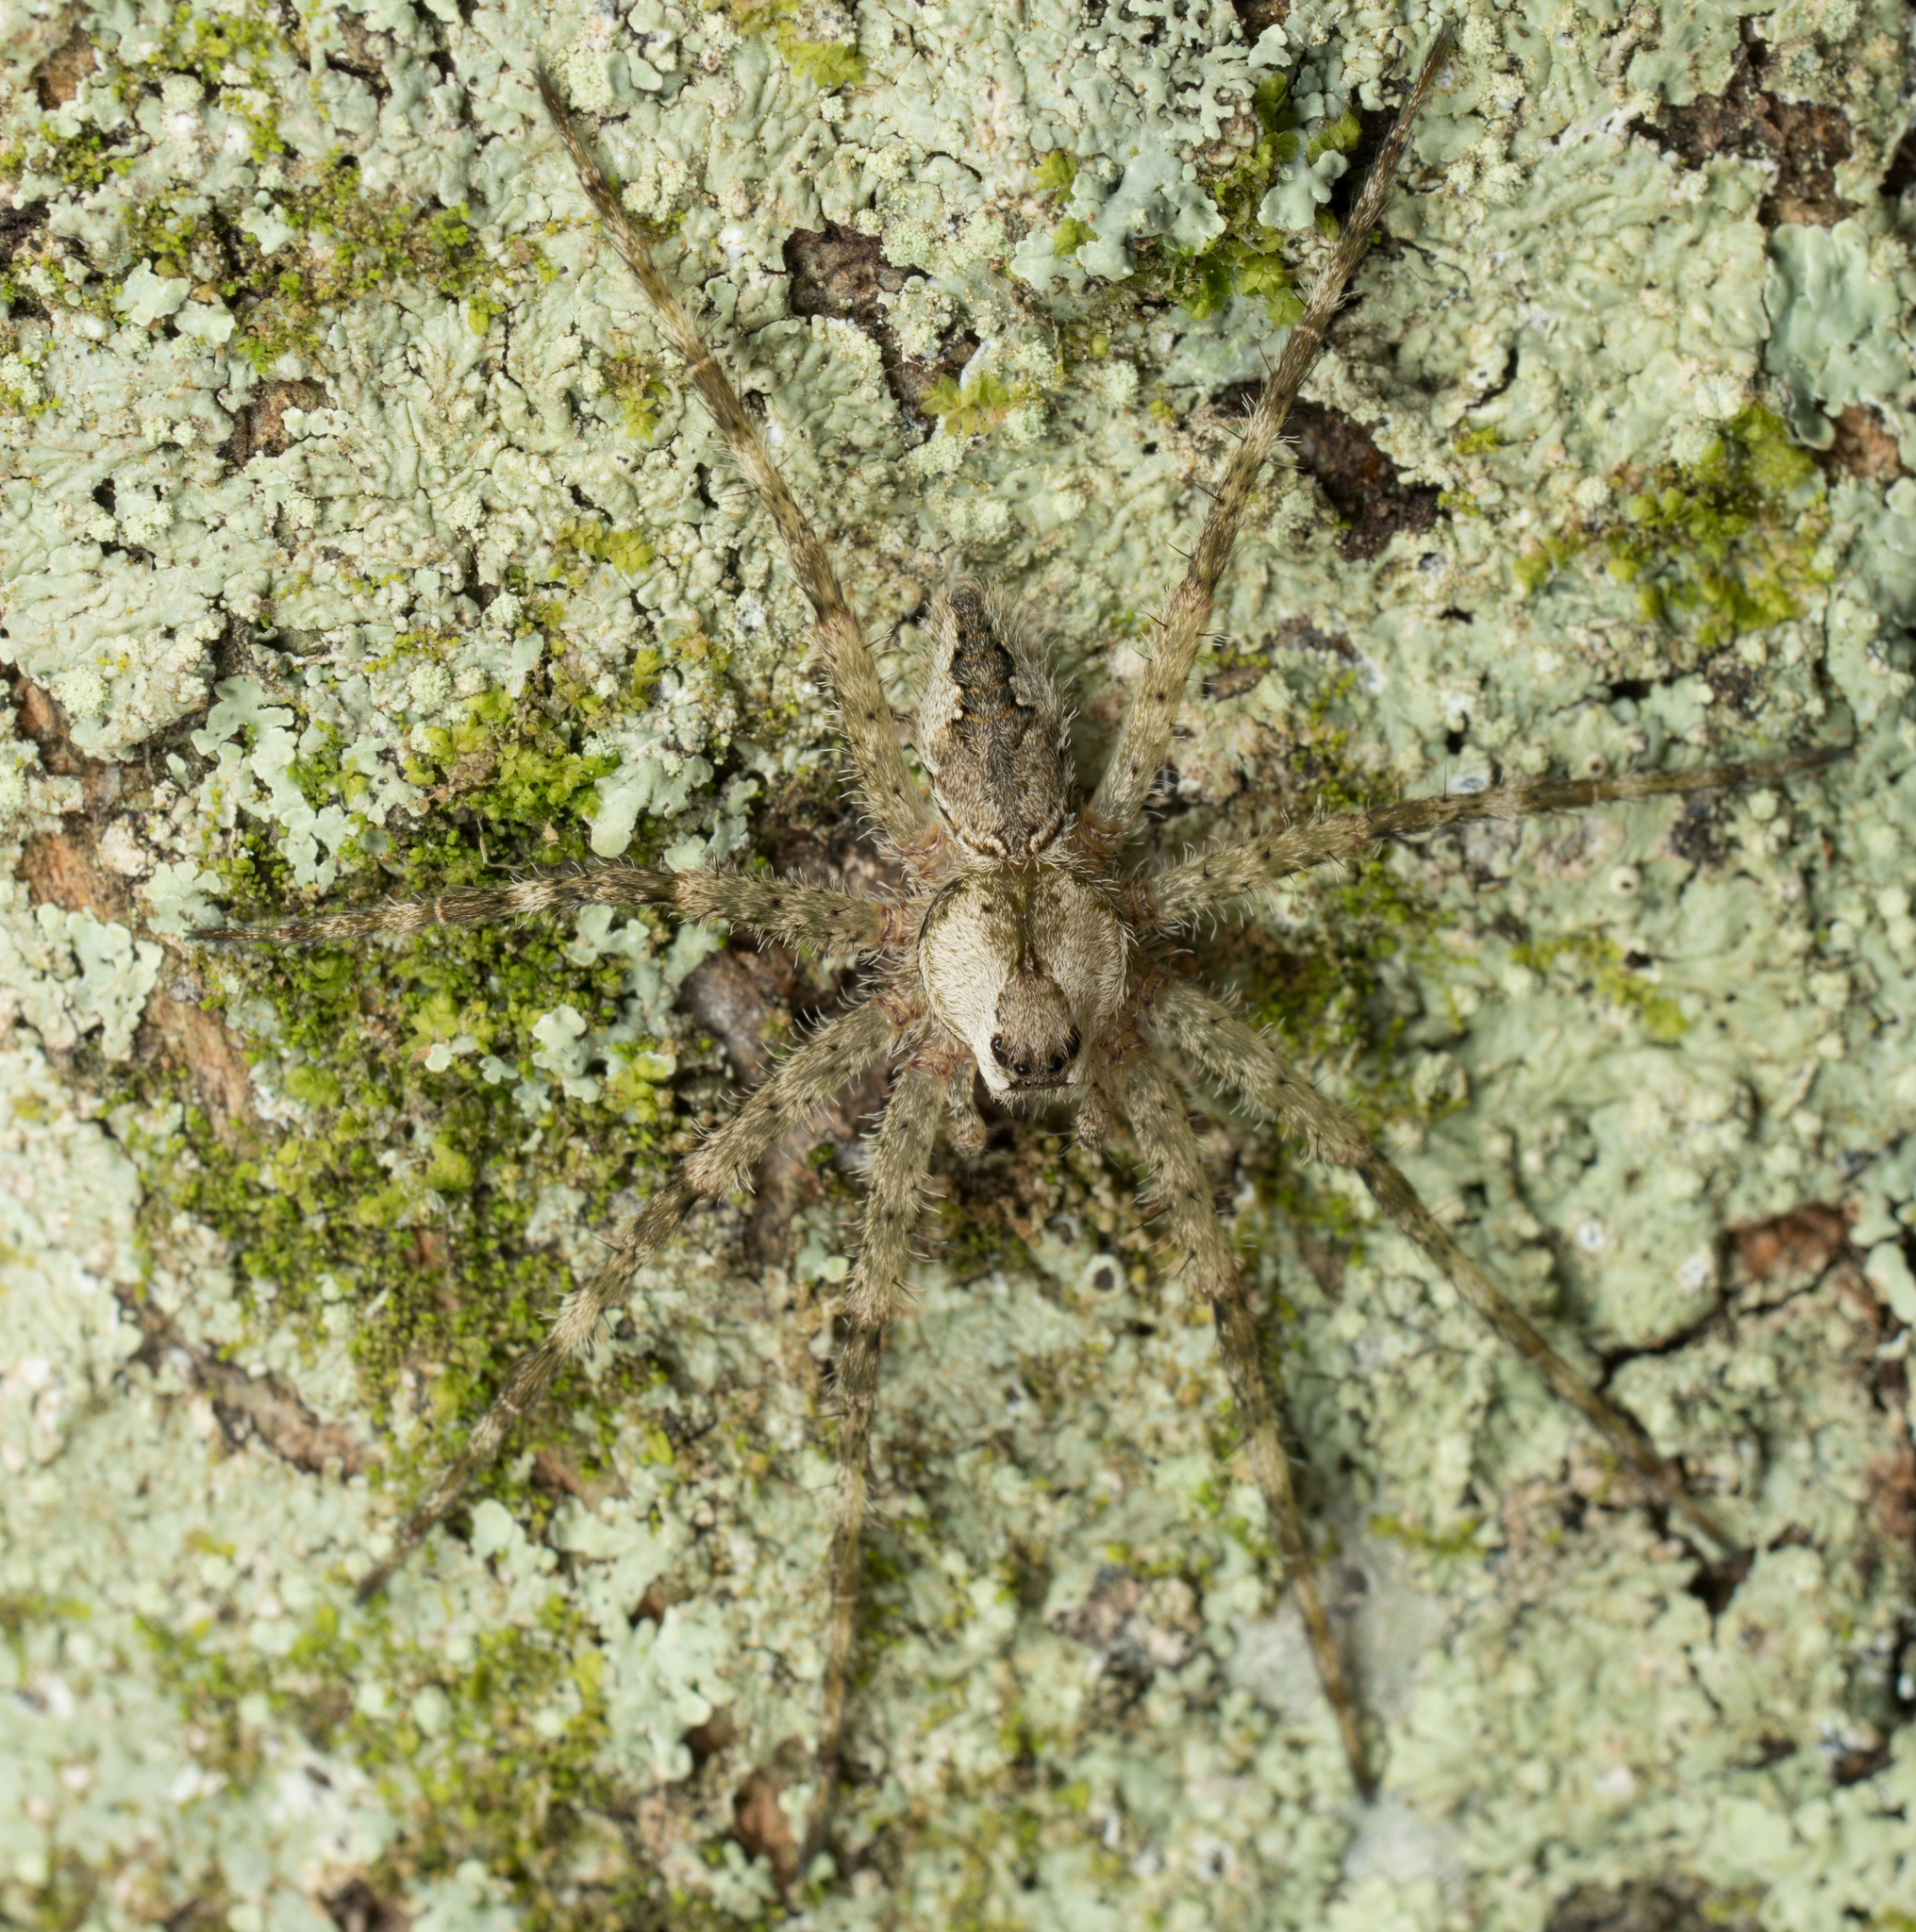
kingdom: Animalia
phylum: Arthropoda
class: Arachnida
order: Araneae
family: Pisauridae
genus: Dolomedes
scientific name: Dolomedes albineus
